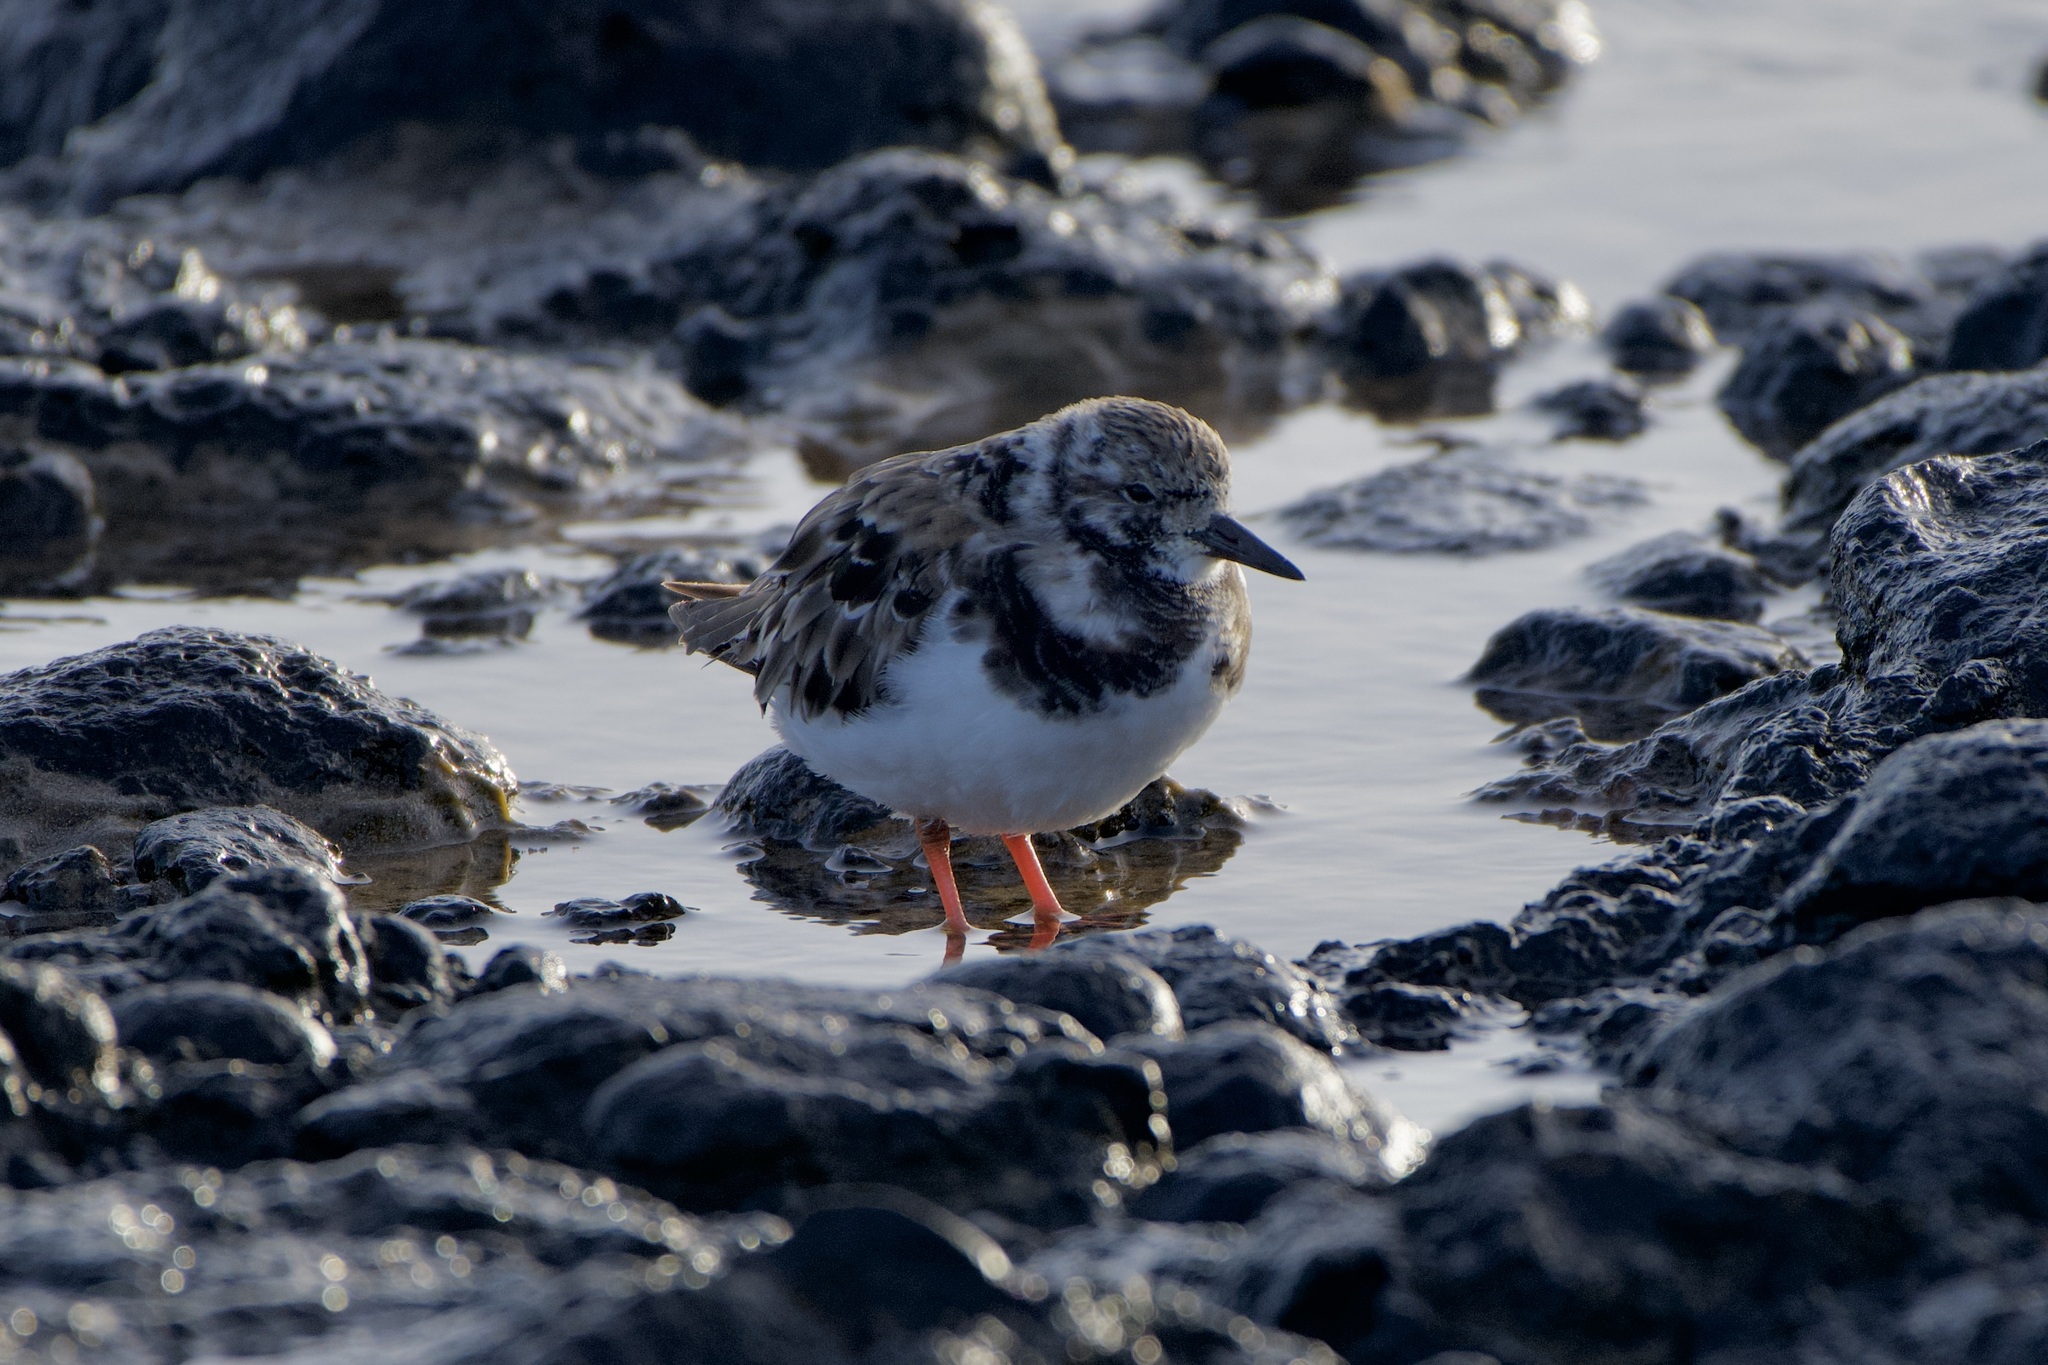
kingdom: Animalia
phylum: Chordata
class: Aves
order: Charadriiformes
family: Scolopacidae
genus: Arenaria
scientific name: Arenaria interpres
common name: Ruddy turnstone
